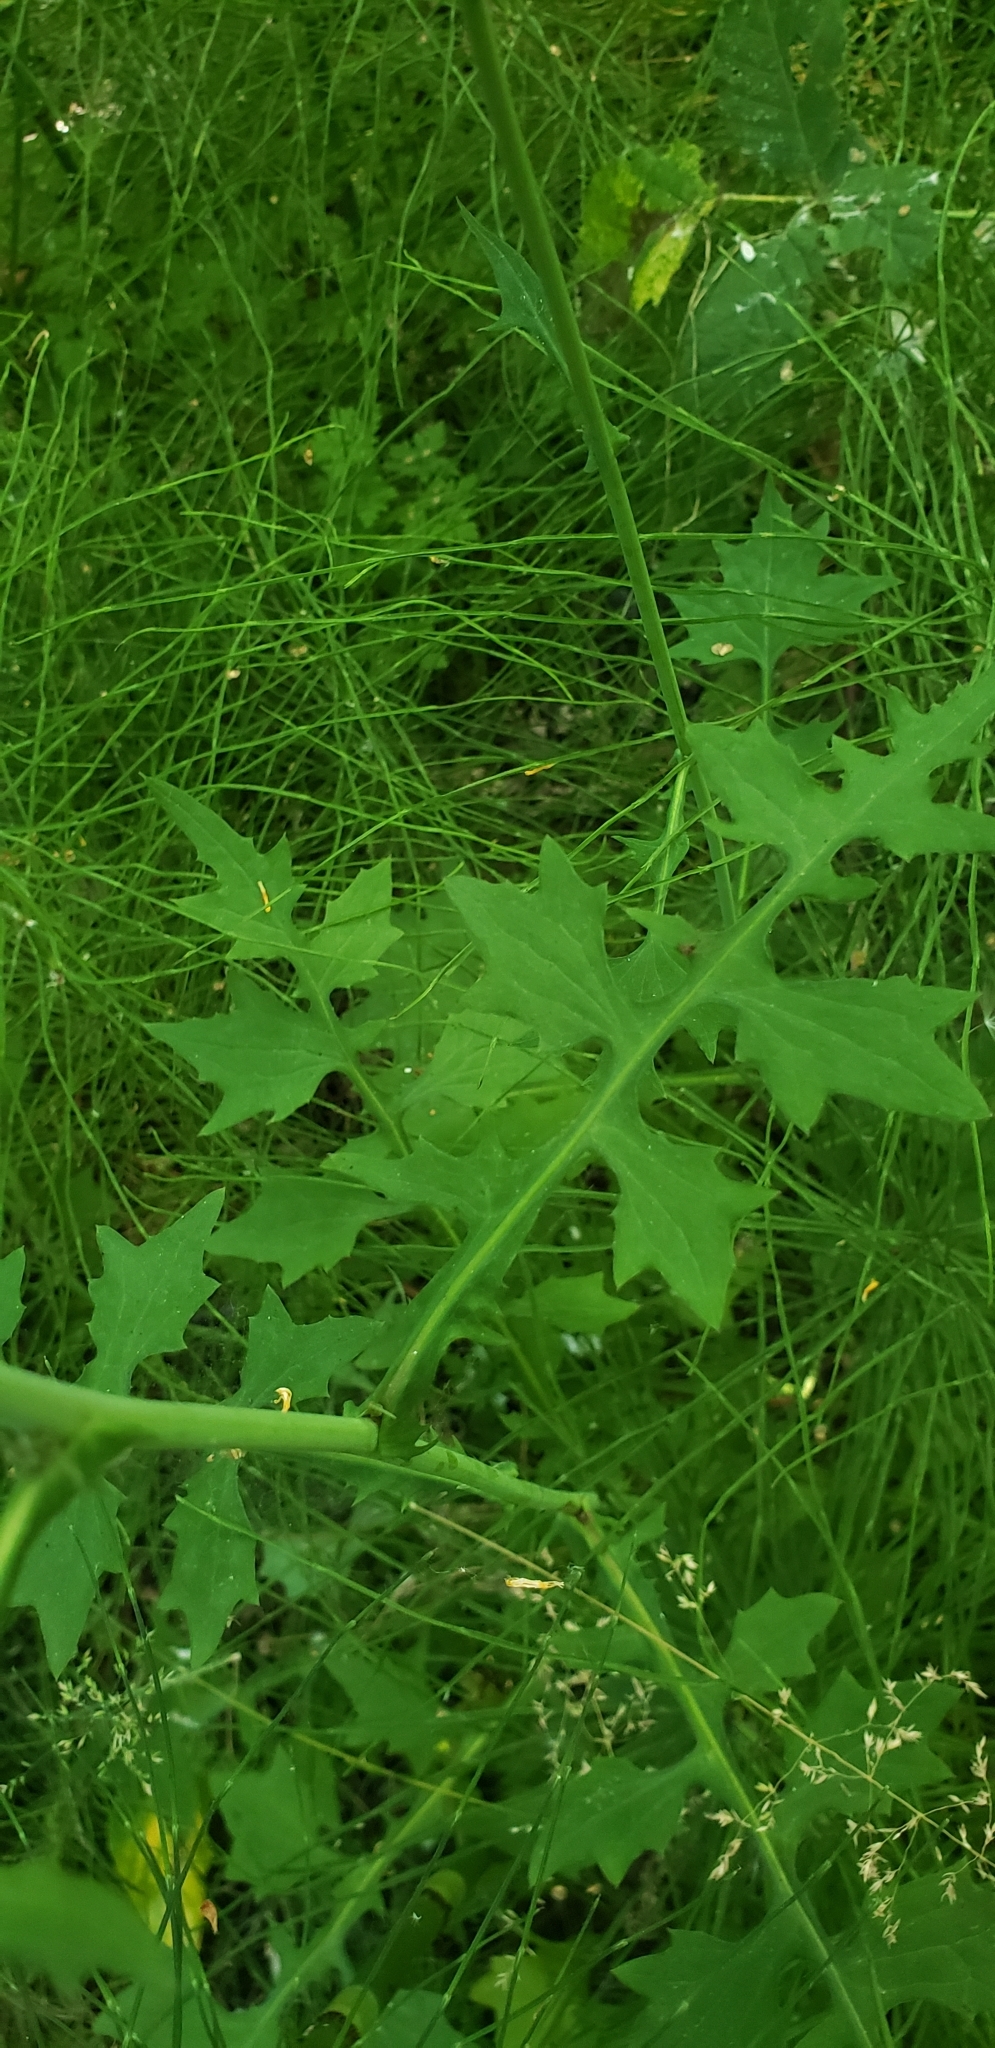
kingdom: Plantae
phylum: Tracheophyta
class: Magnoliopsida
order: Asterales
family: Asteraceae
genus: Mycelis
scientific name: Mycelis muralis
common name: Wall lettuce
